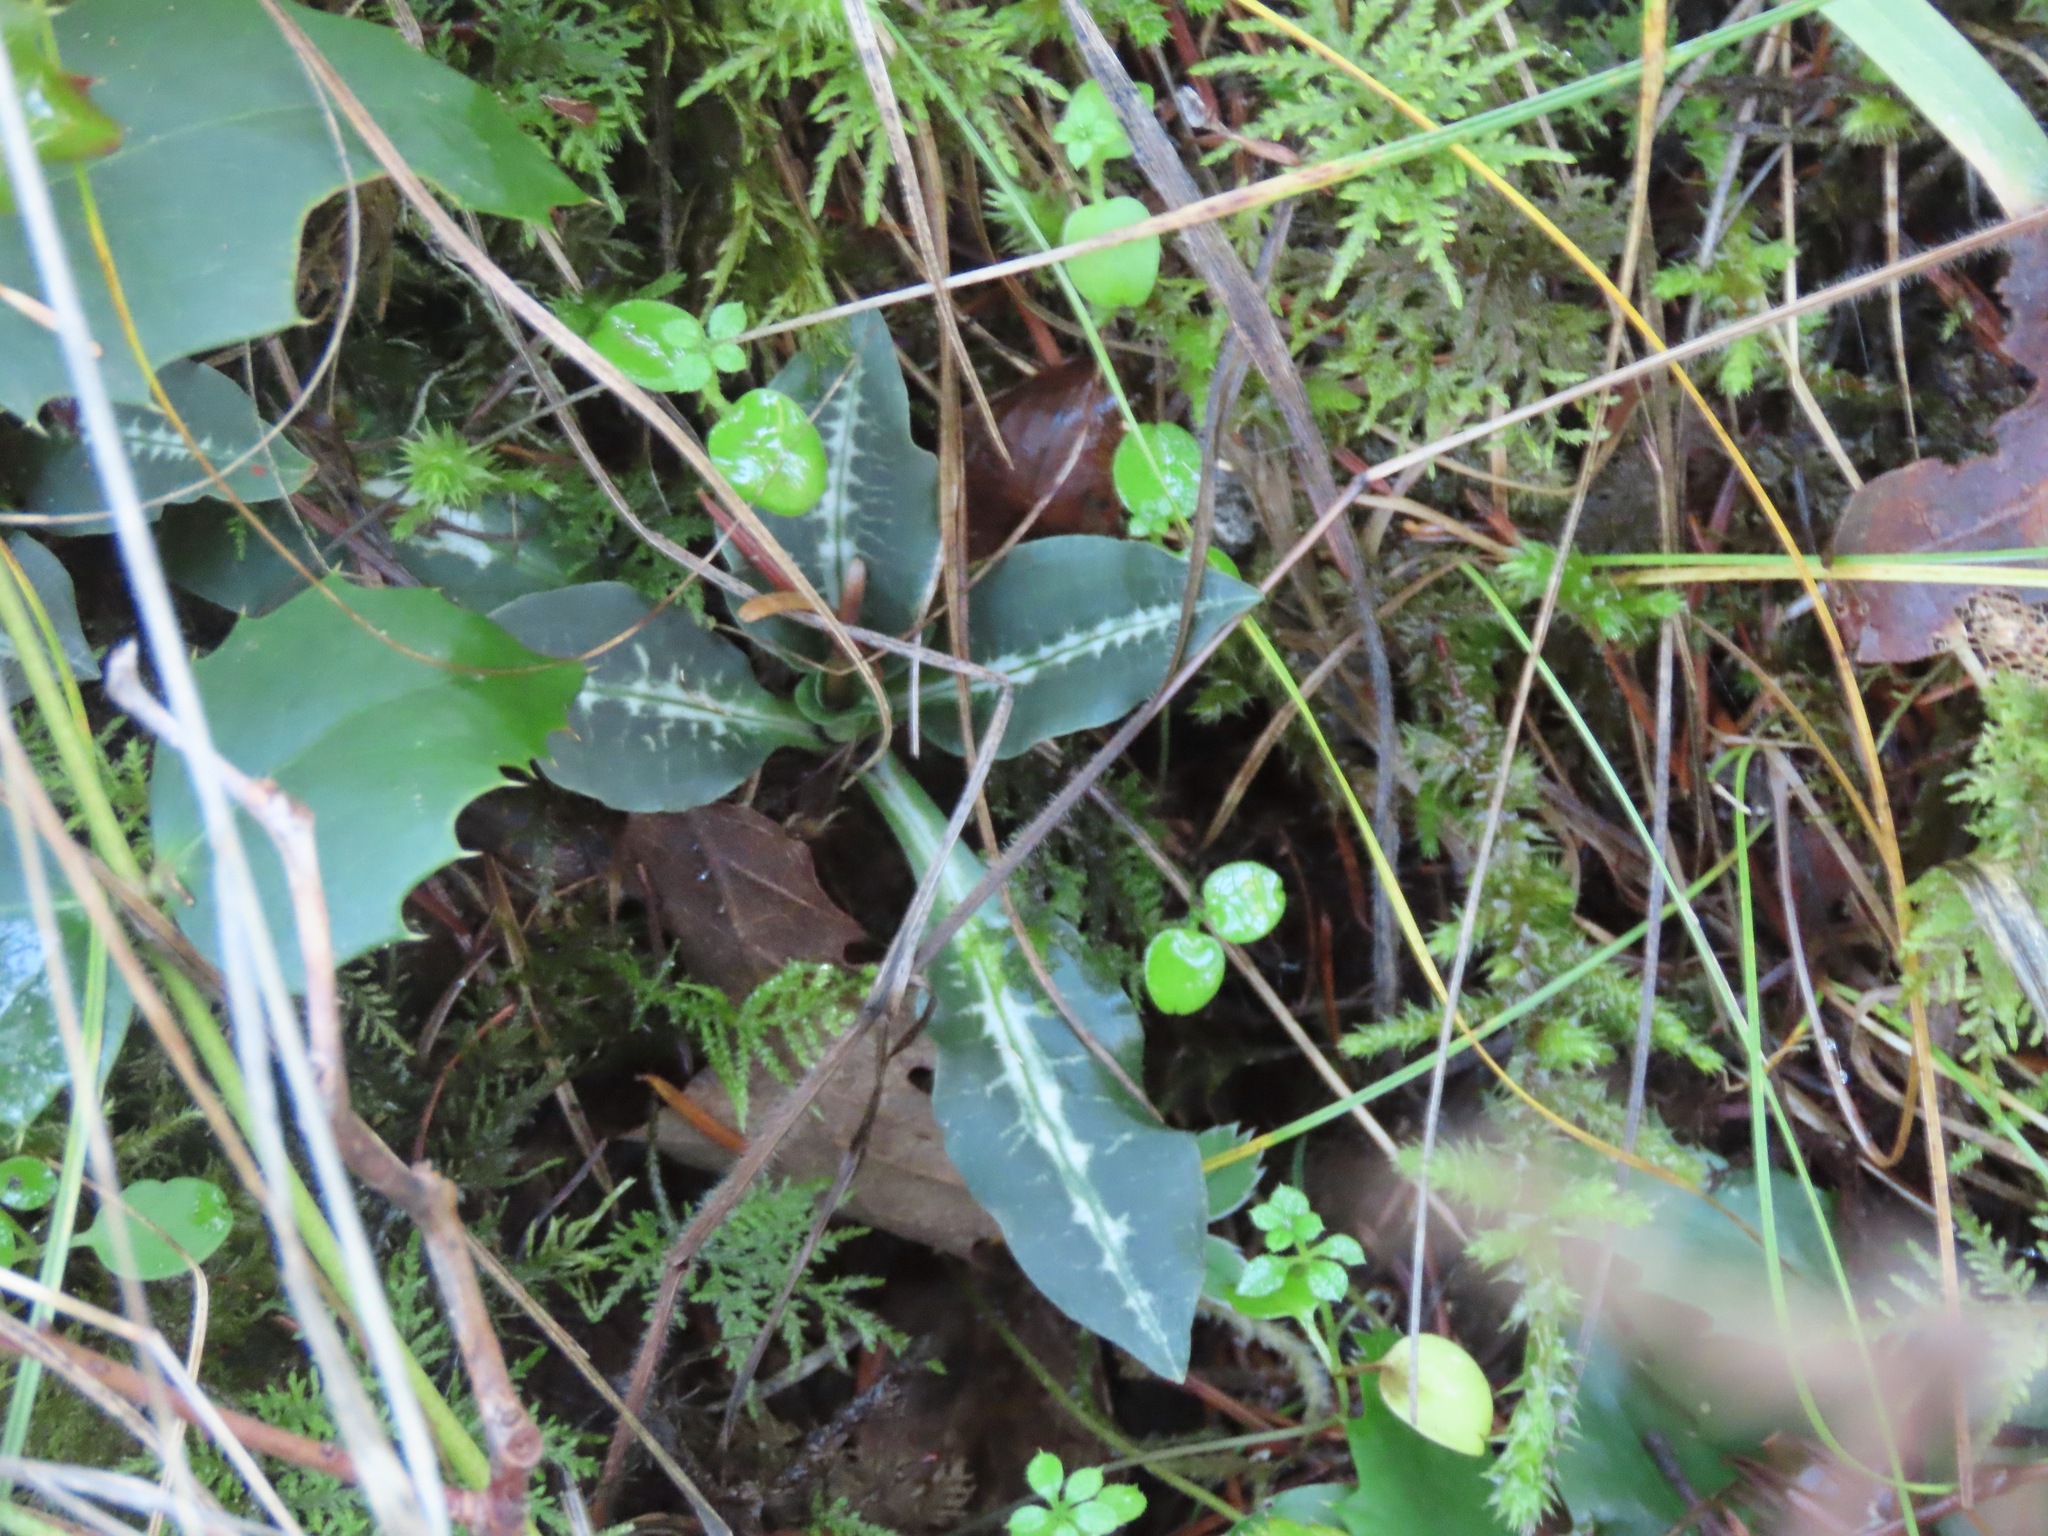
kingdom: Plantae
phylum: Tracheophyta
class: Liliopsida
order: Asparagales
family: Orchidaceae
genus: Goodyera
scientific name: Goodyera oblongifolia
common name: Giant rattlesnake-plantain
